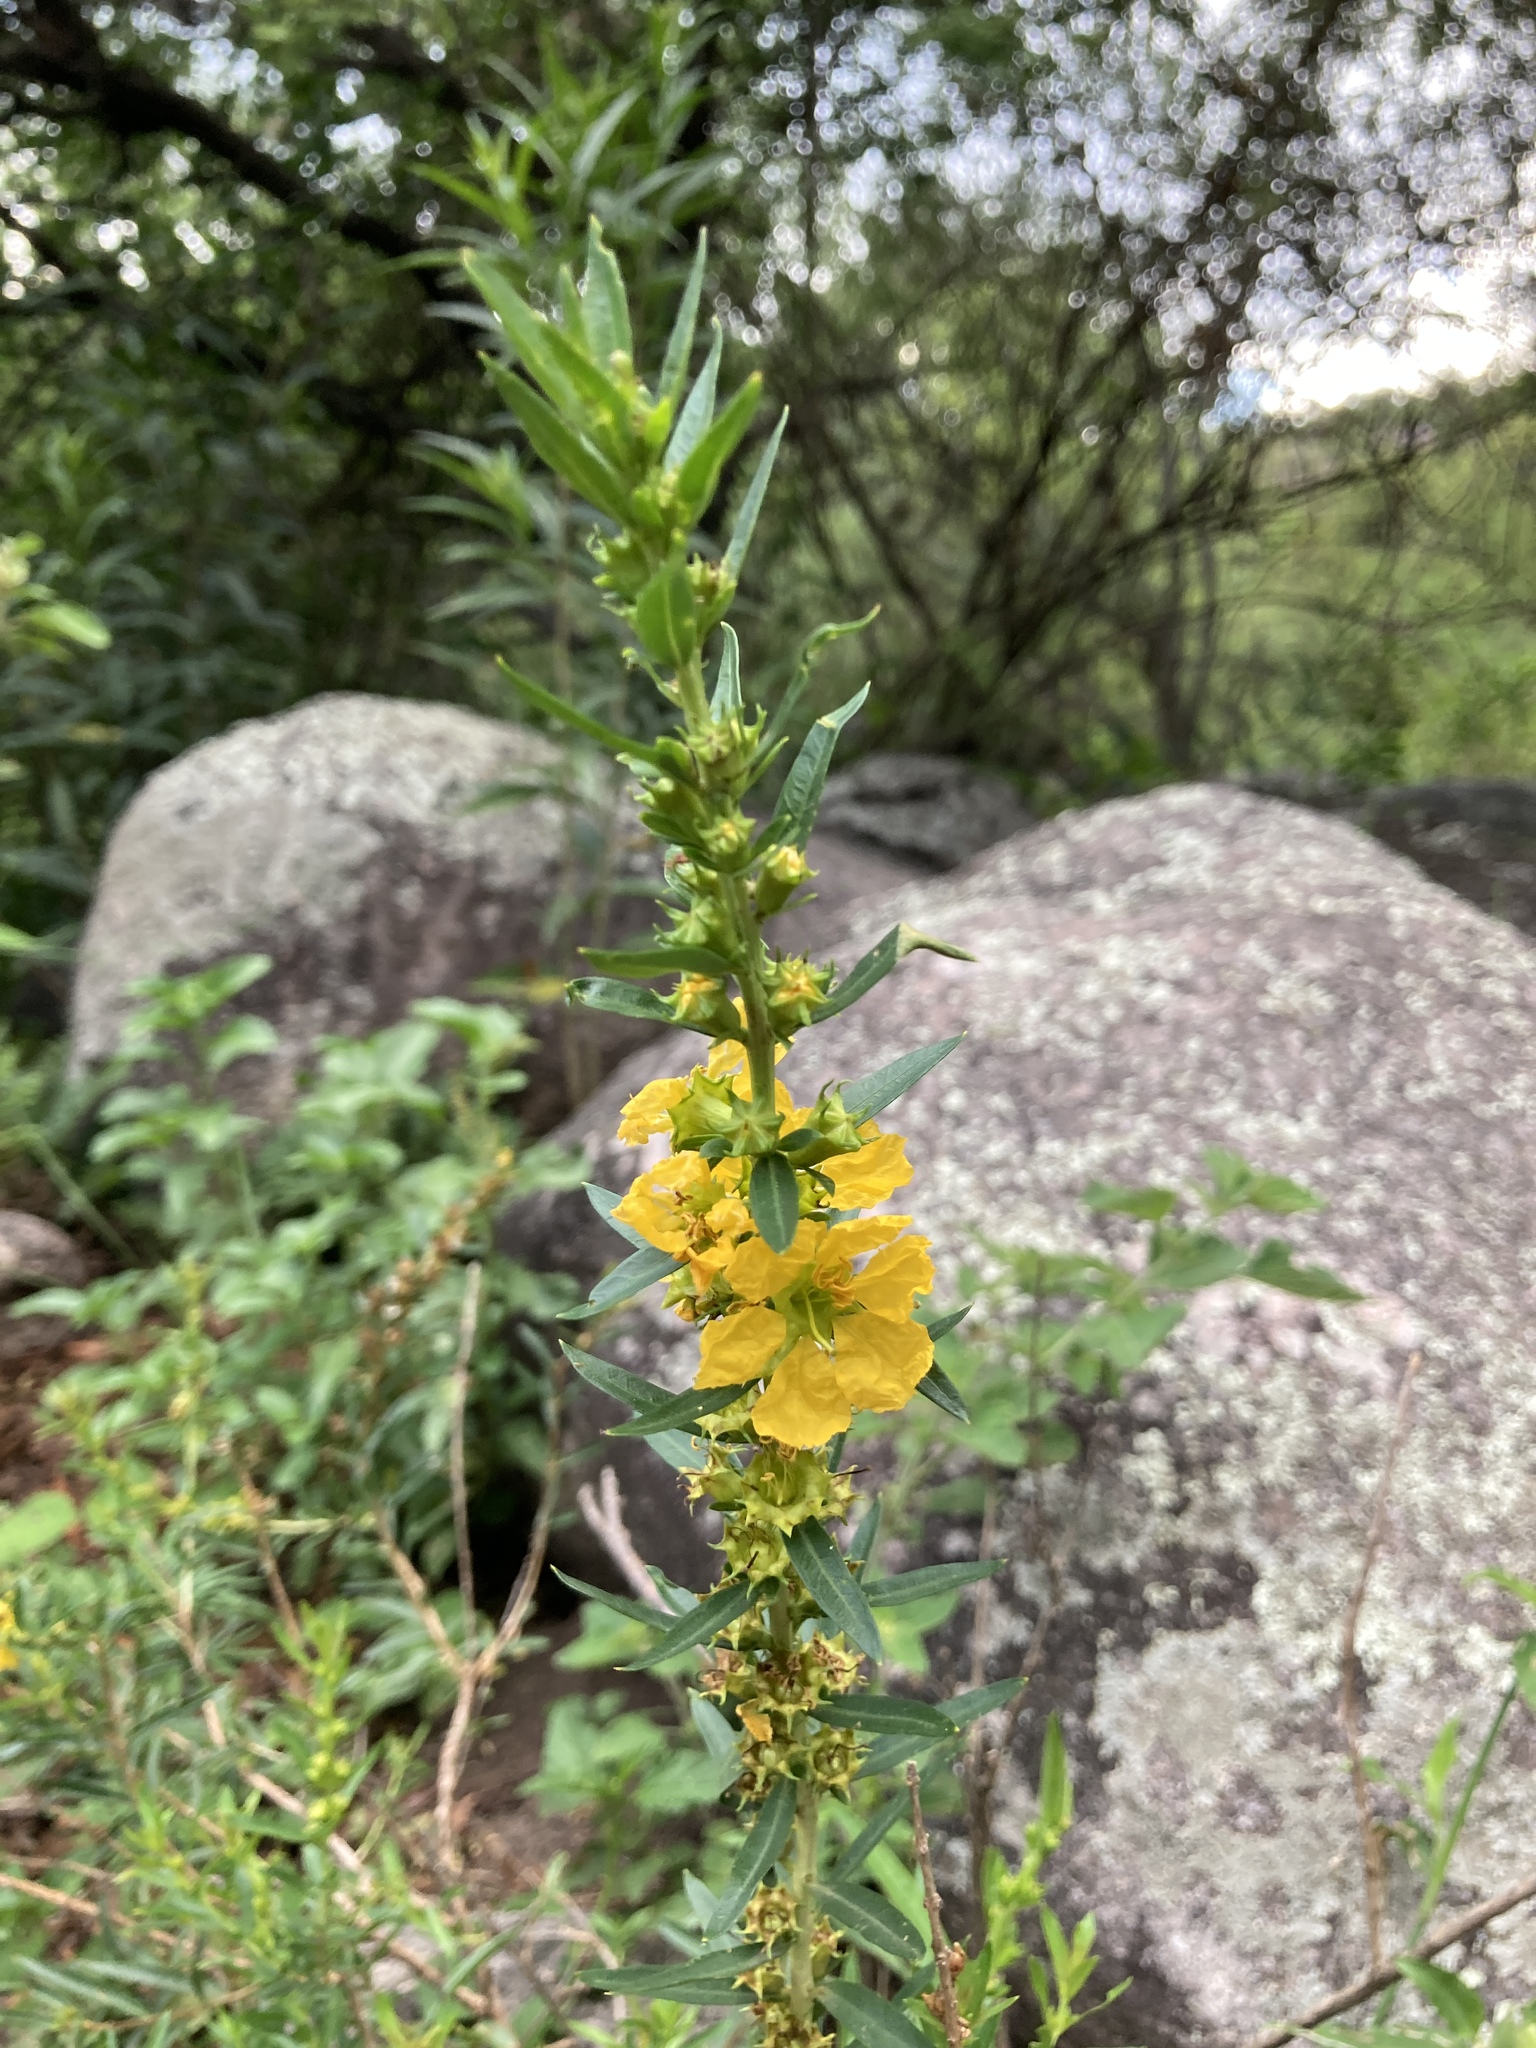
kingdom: Plantae
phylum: Tracheophyta
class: Magnoliopsida
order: Myrtales
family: Lythraceae
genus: Heimia
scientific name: Heimia salicifolia
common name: Willow-leaf heimia
